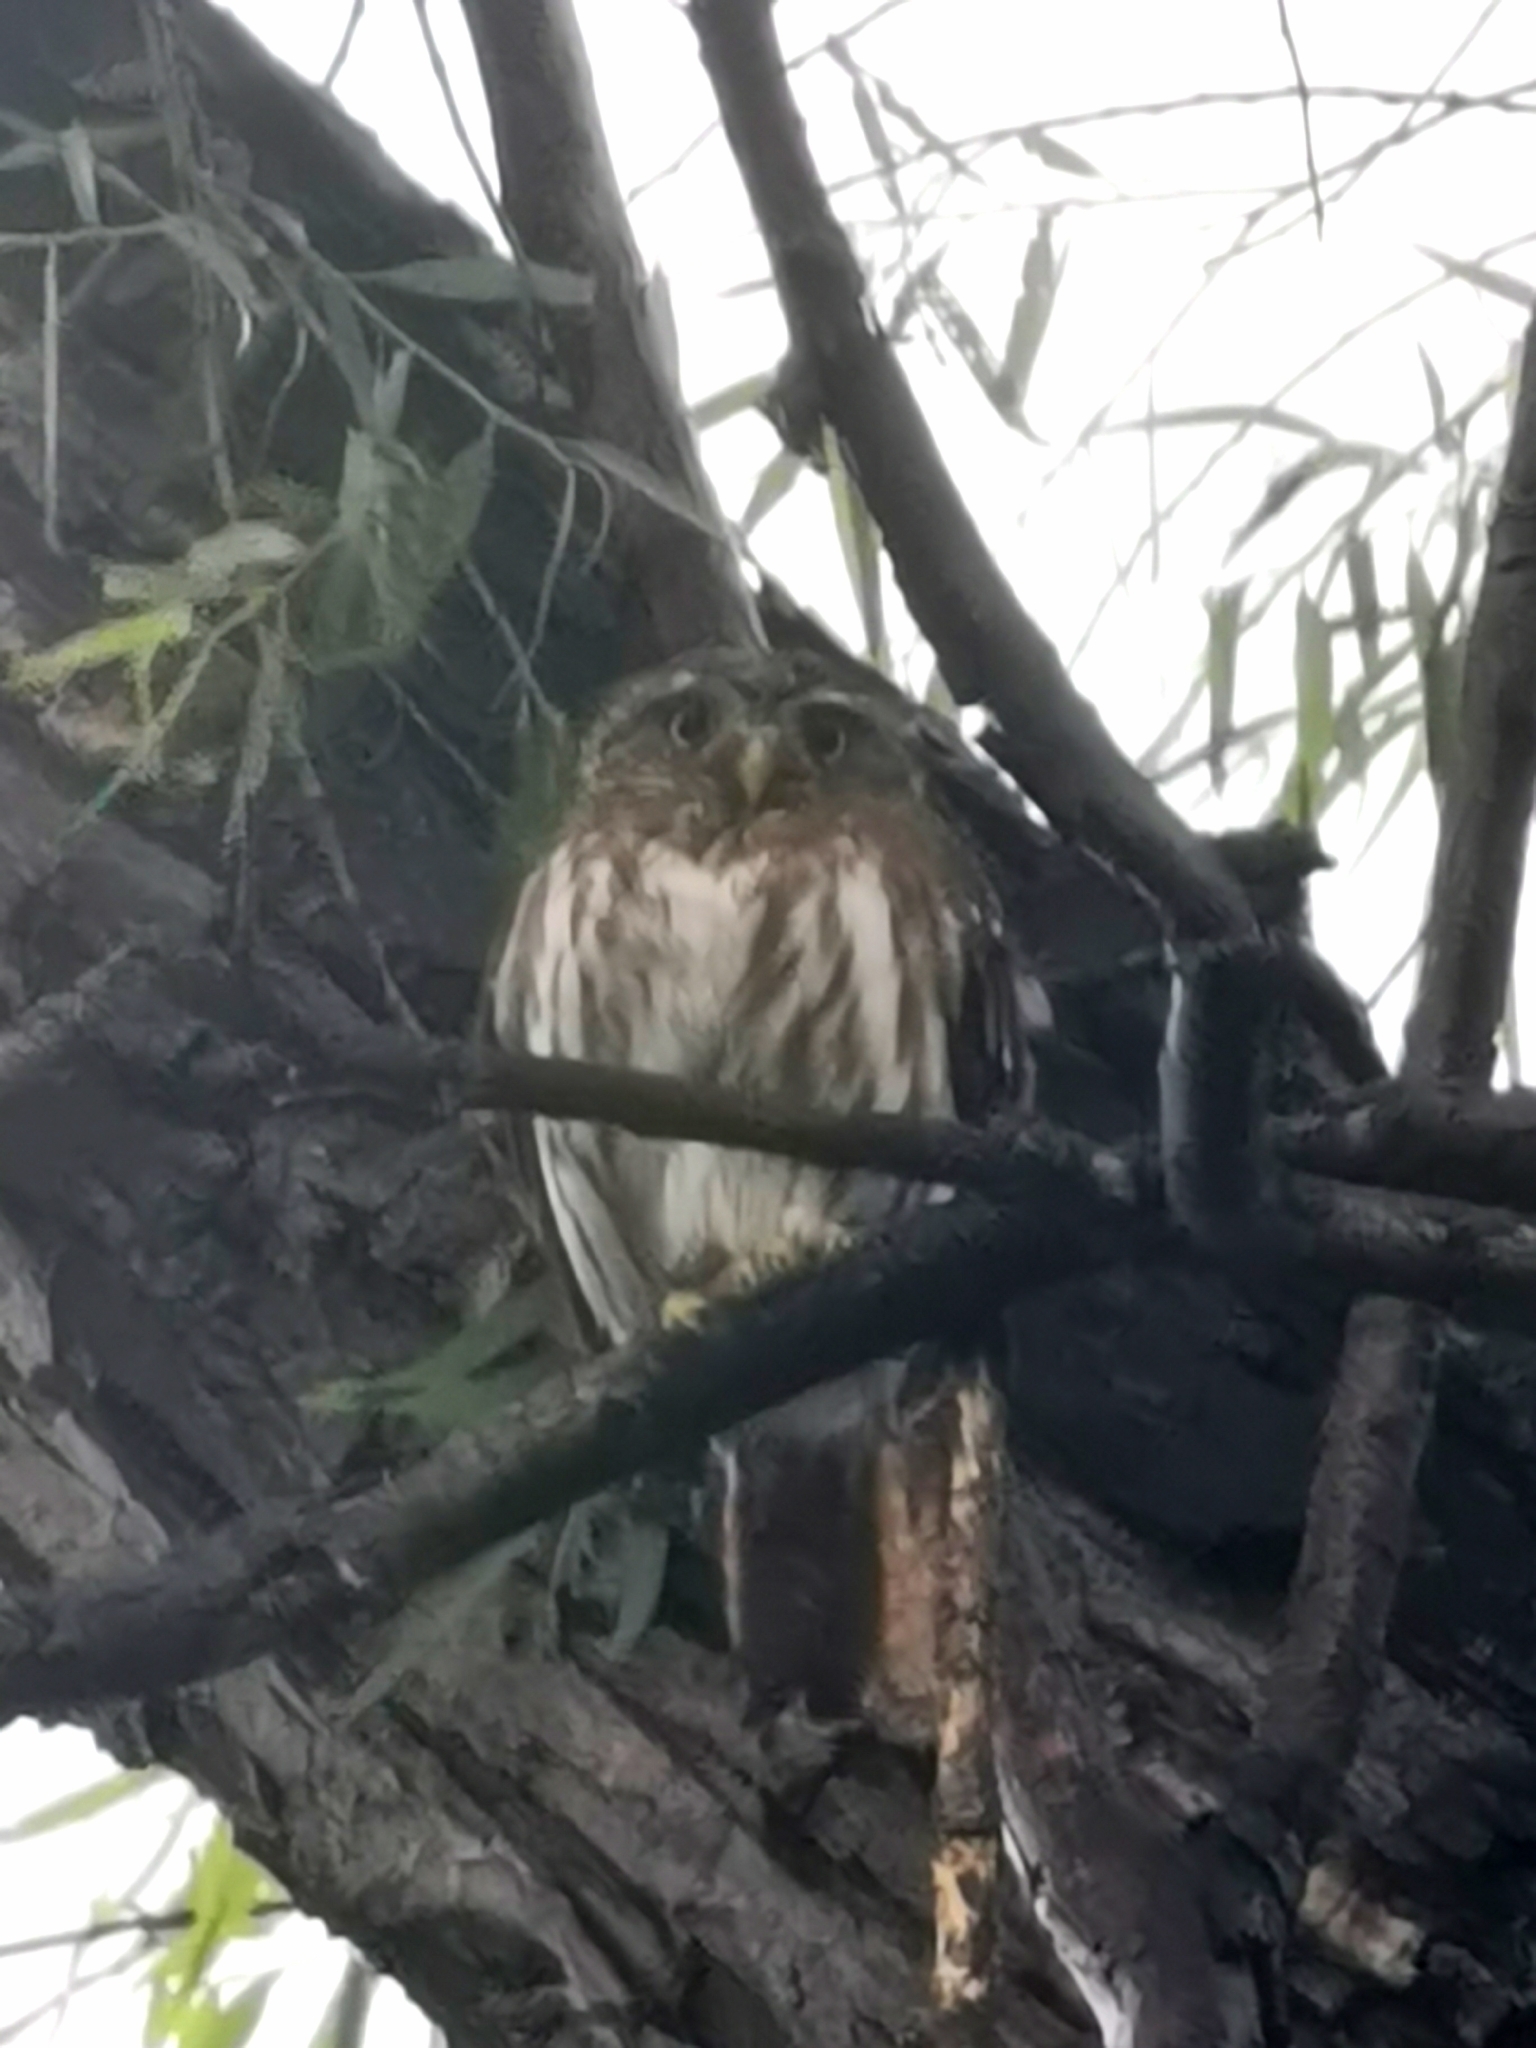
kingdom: Animalia
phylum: Chordata
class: Aves
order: Strigiformes
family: Strigidae
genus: Glaucidium
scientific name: Glaucidium brasilianum
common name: Ferruginous pygmy-owl
